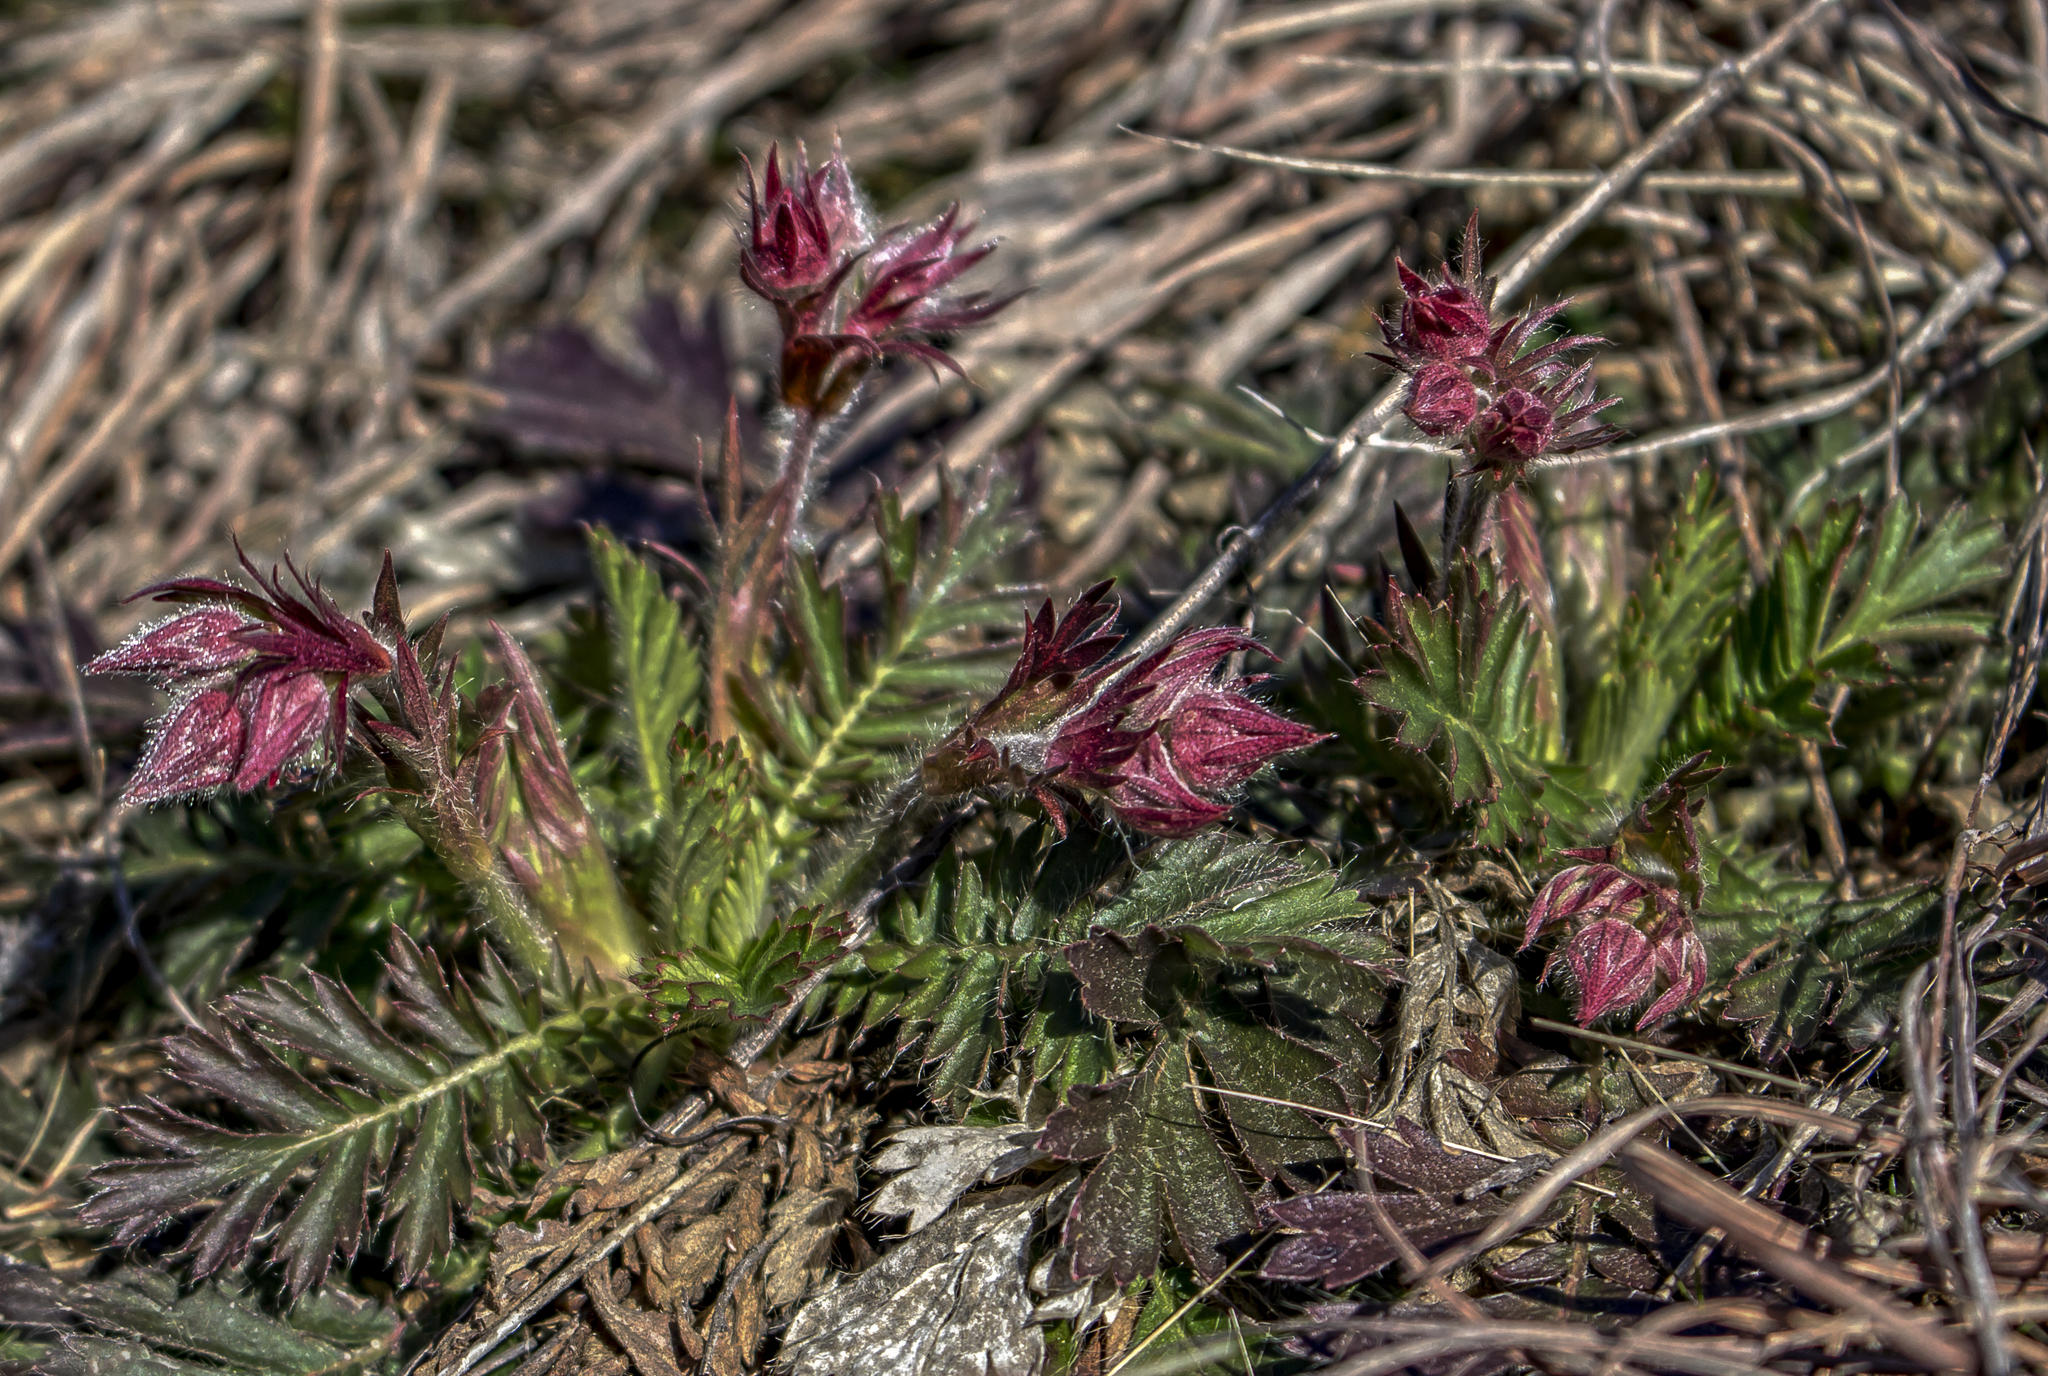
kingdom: Plantae
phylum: Tracheophyta
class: Magnoliopsida
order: Rosales
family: Rosaceae
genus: Geum
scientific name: Geum triflorum
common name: Old man's whiskers
